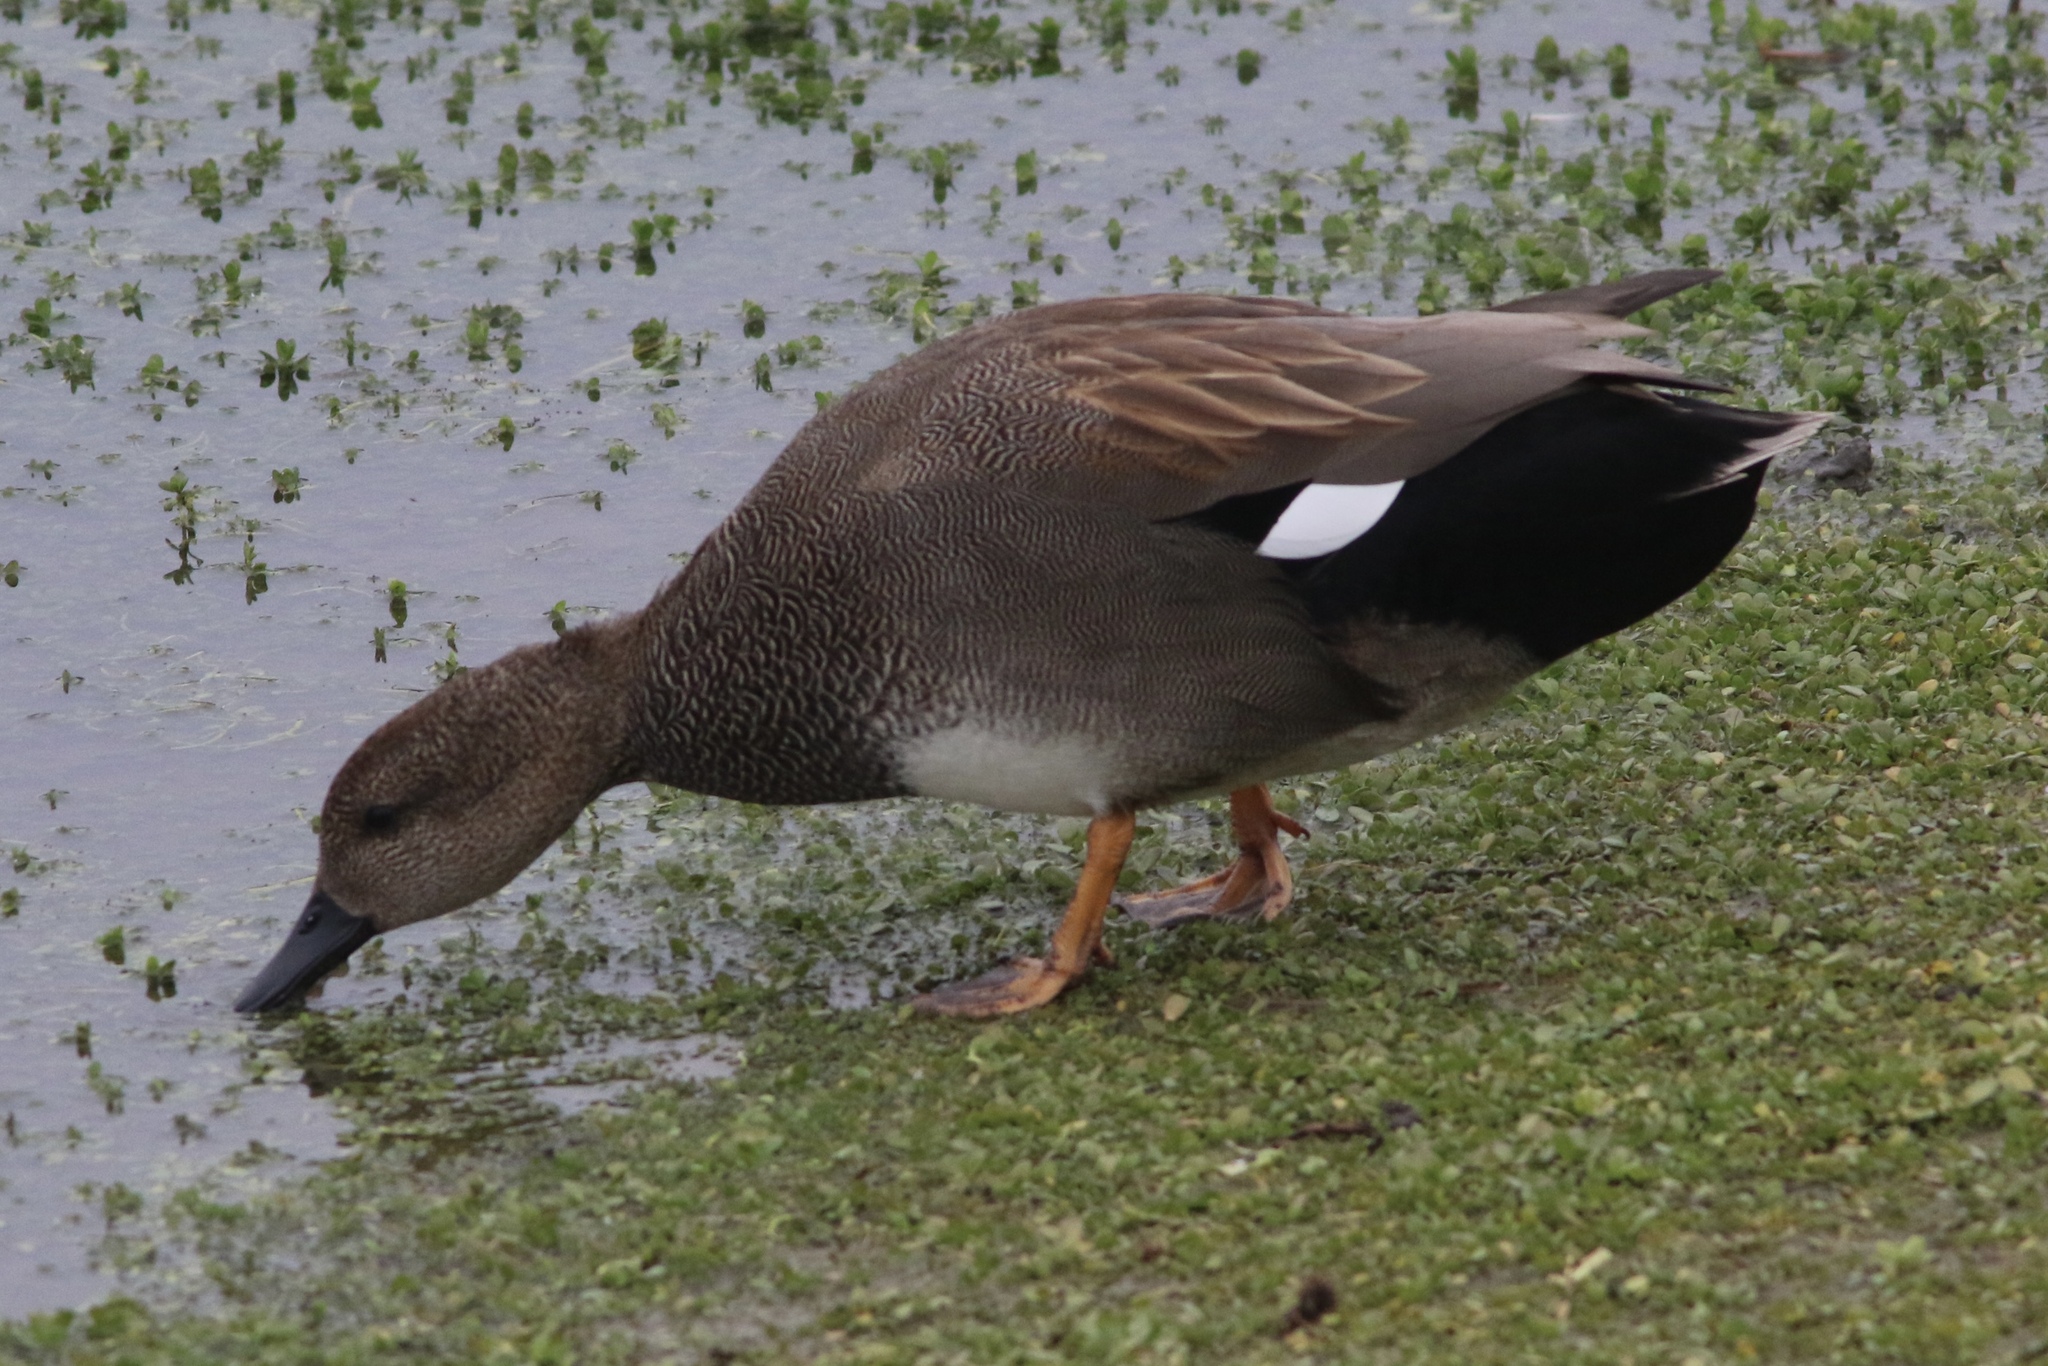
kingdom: Animalia
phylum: Chordata
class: Aves
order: Anseriformes
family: Anatidae
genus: Mareca
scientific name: Mareca strepera
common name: Gadwall
